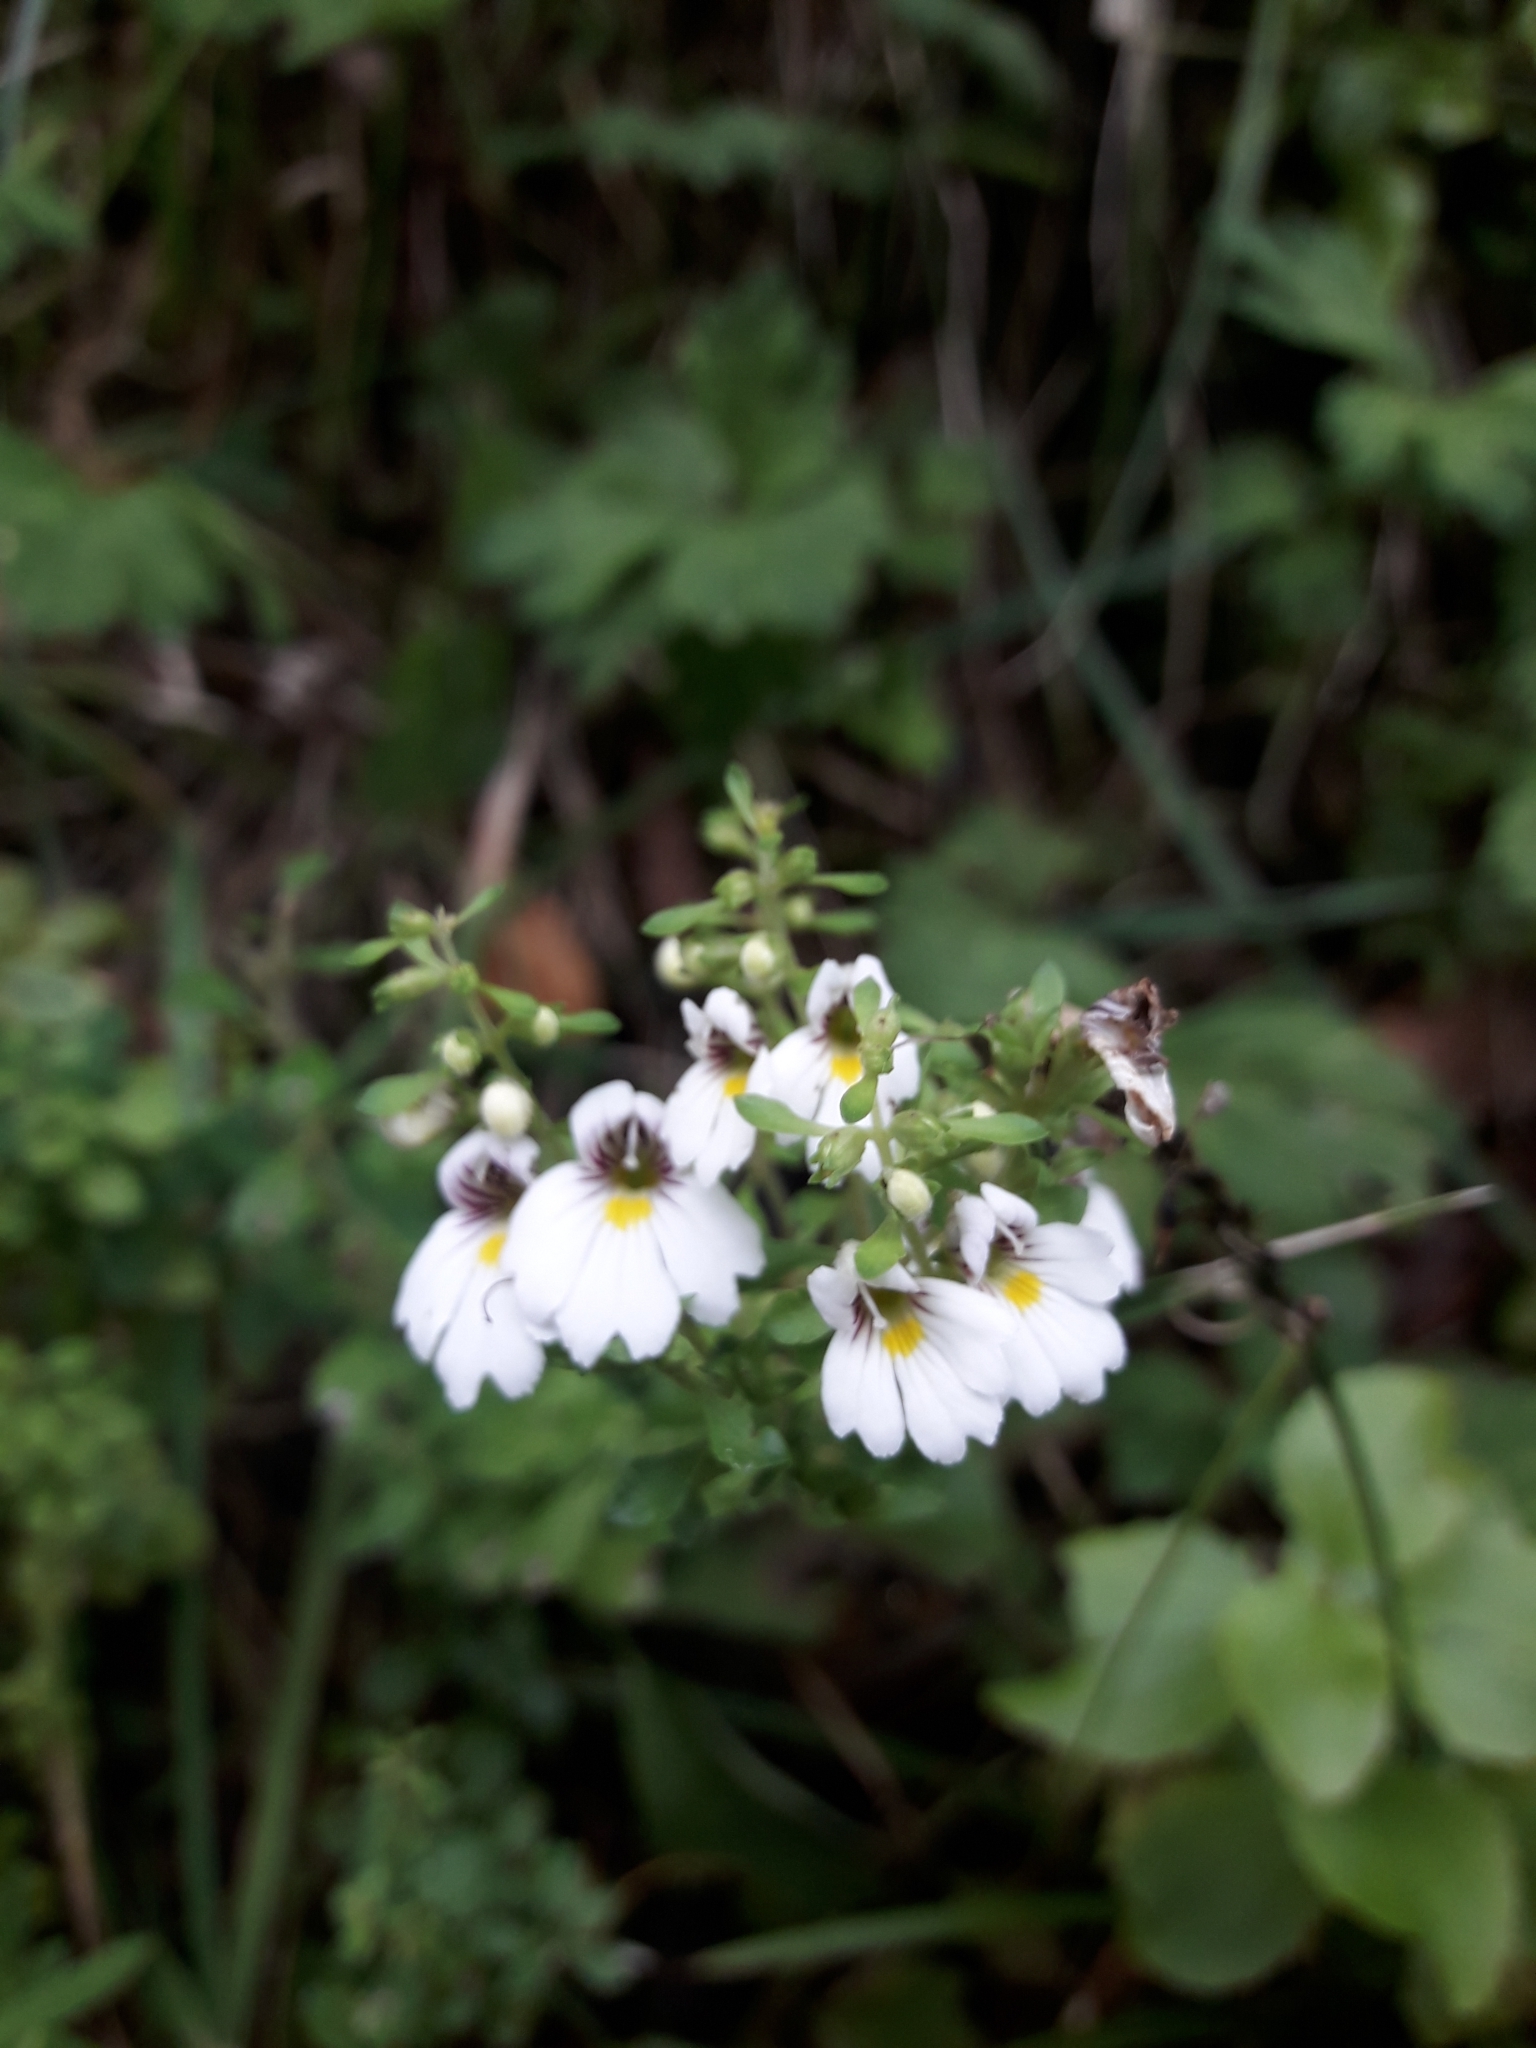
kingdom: Plantae
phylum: Tracheophyta
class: Magnoliopsida
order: Lamiales
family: Orobanchaceae
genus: Euphrasia
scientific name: Euphrasia cuneata
